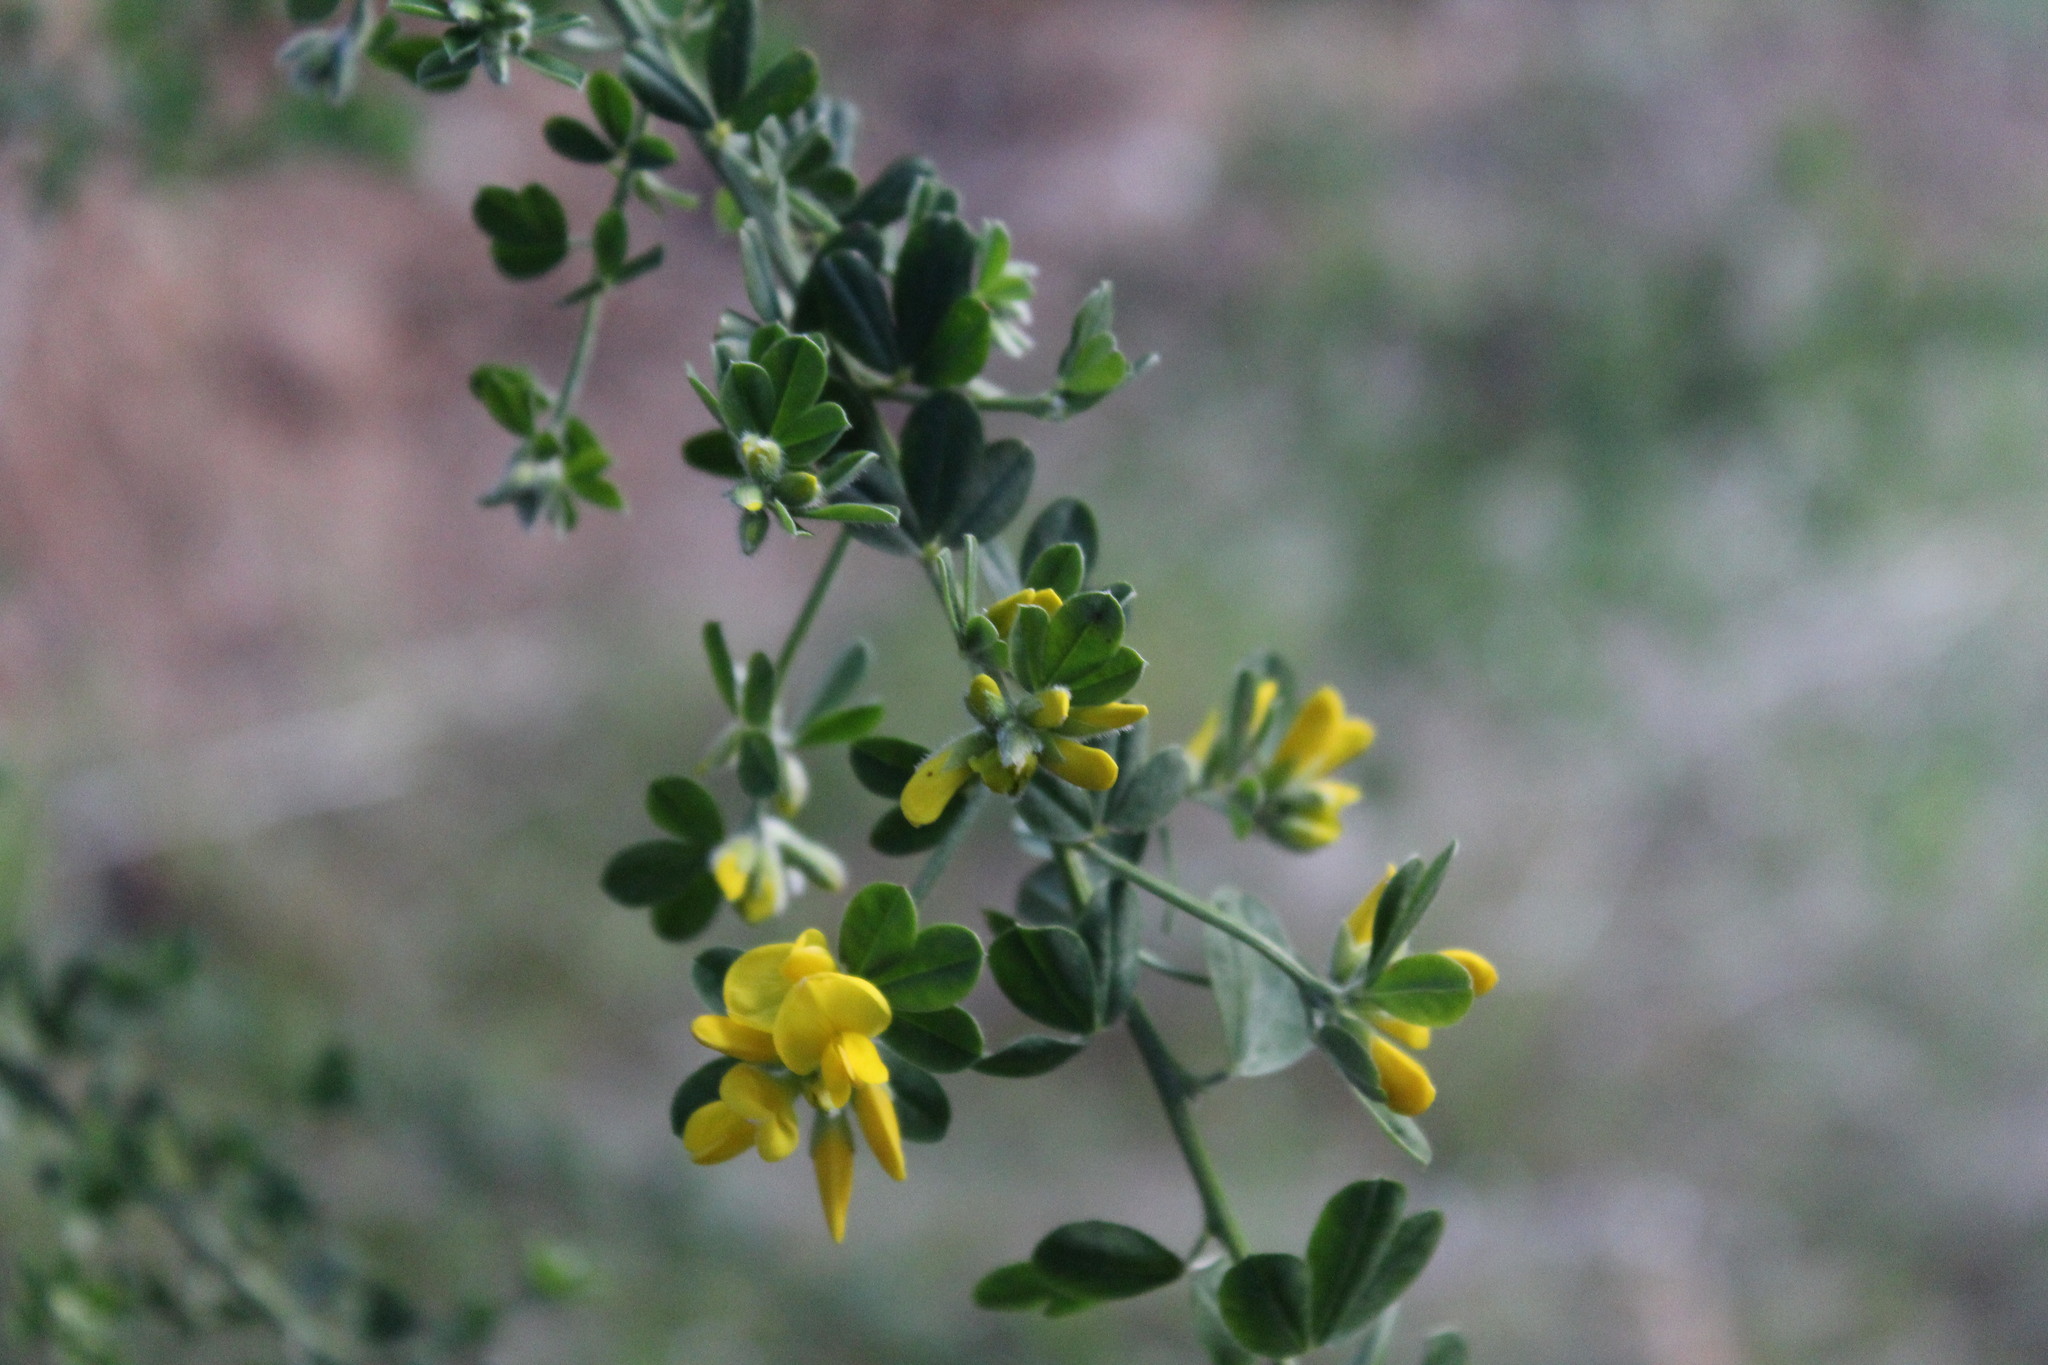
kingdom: Plantae
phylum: Tracheophyta
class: Magnoliopsida
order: Fabales
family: Fabaceae
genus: Genista
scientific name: Genista monspessulana
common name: Montpellier broom
